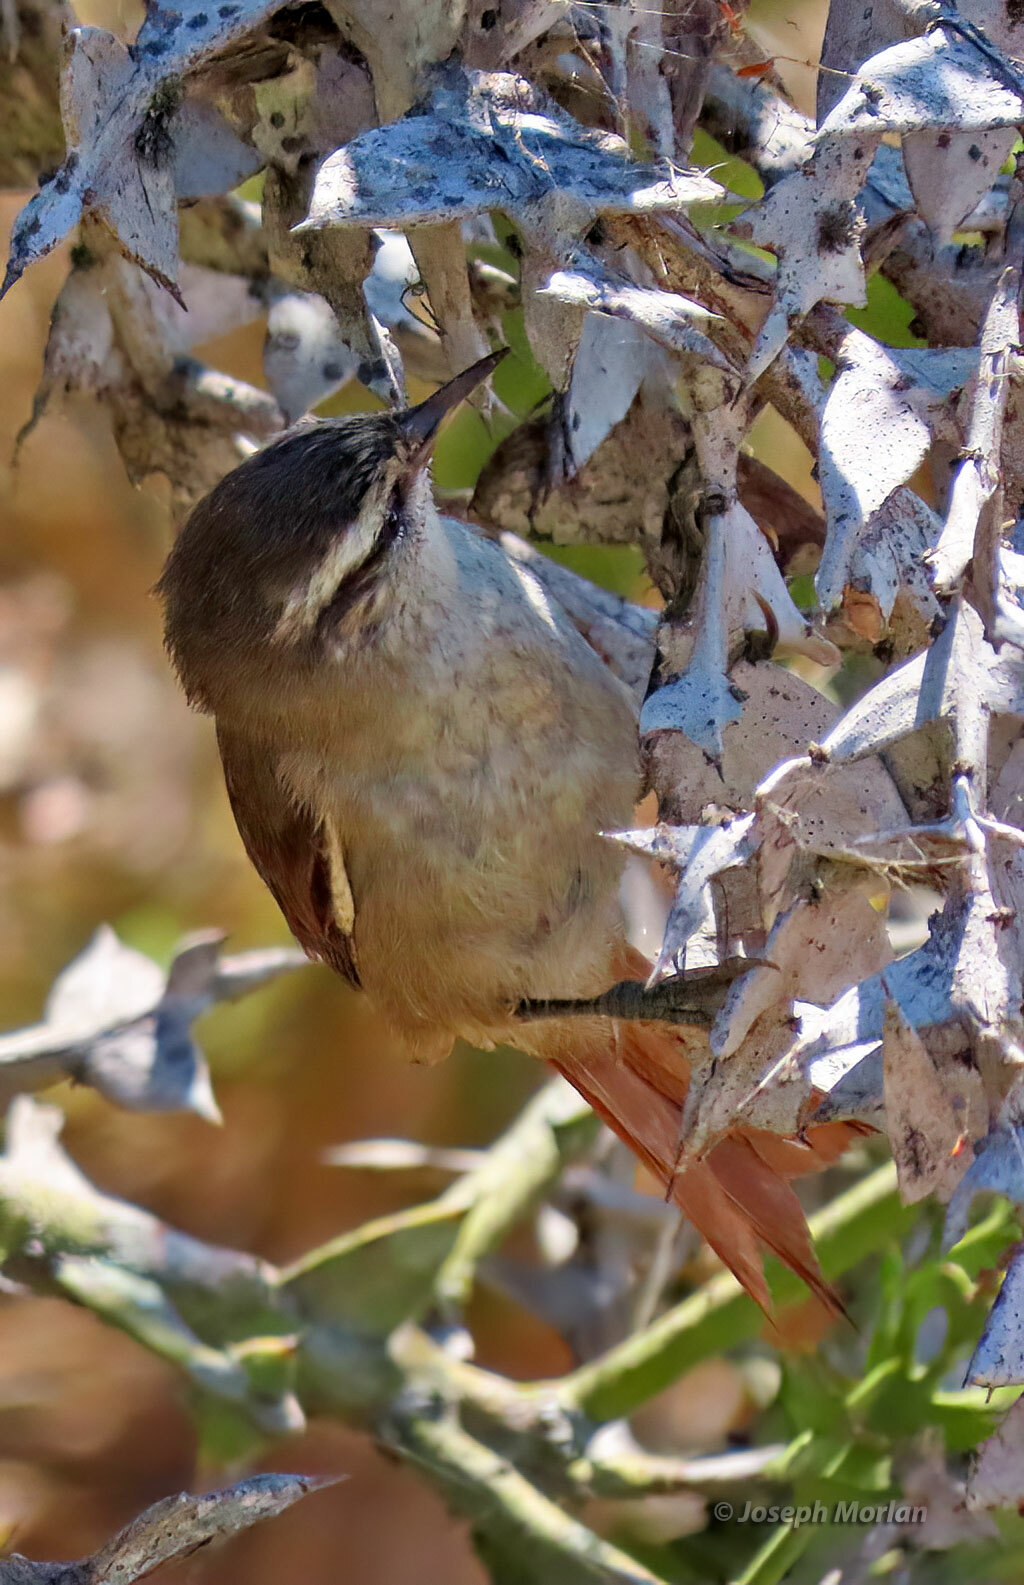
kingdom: Animalia
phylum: Chordata
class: Aves
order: Passeriformes
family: Furnariidae
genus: Cranioleuca
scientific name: Cranioleuca pyrrhophia
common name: Stripe-crowned spinetail
